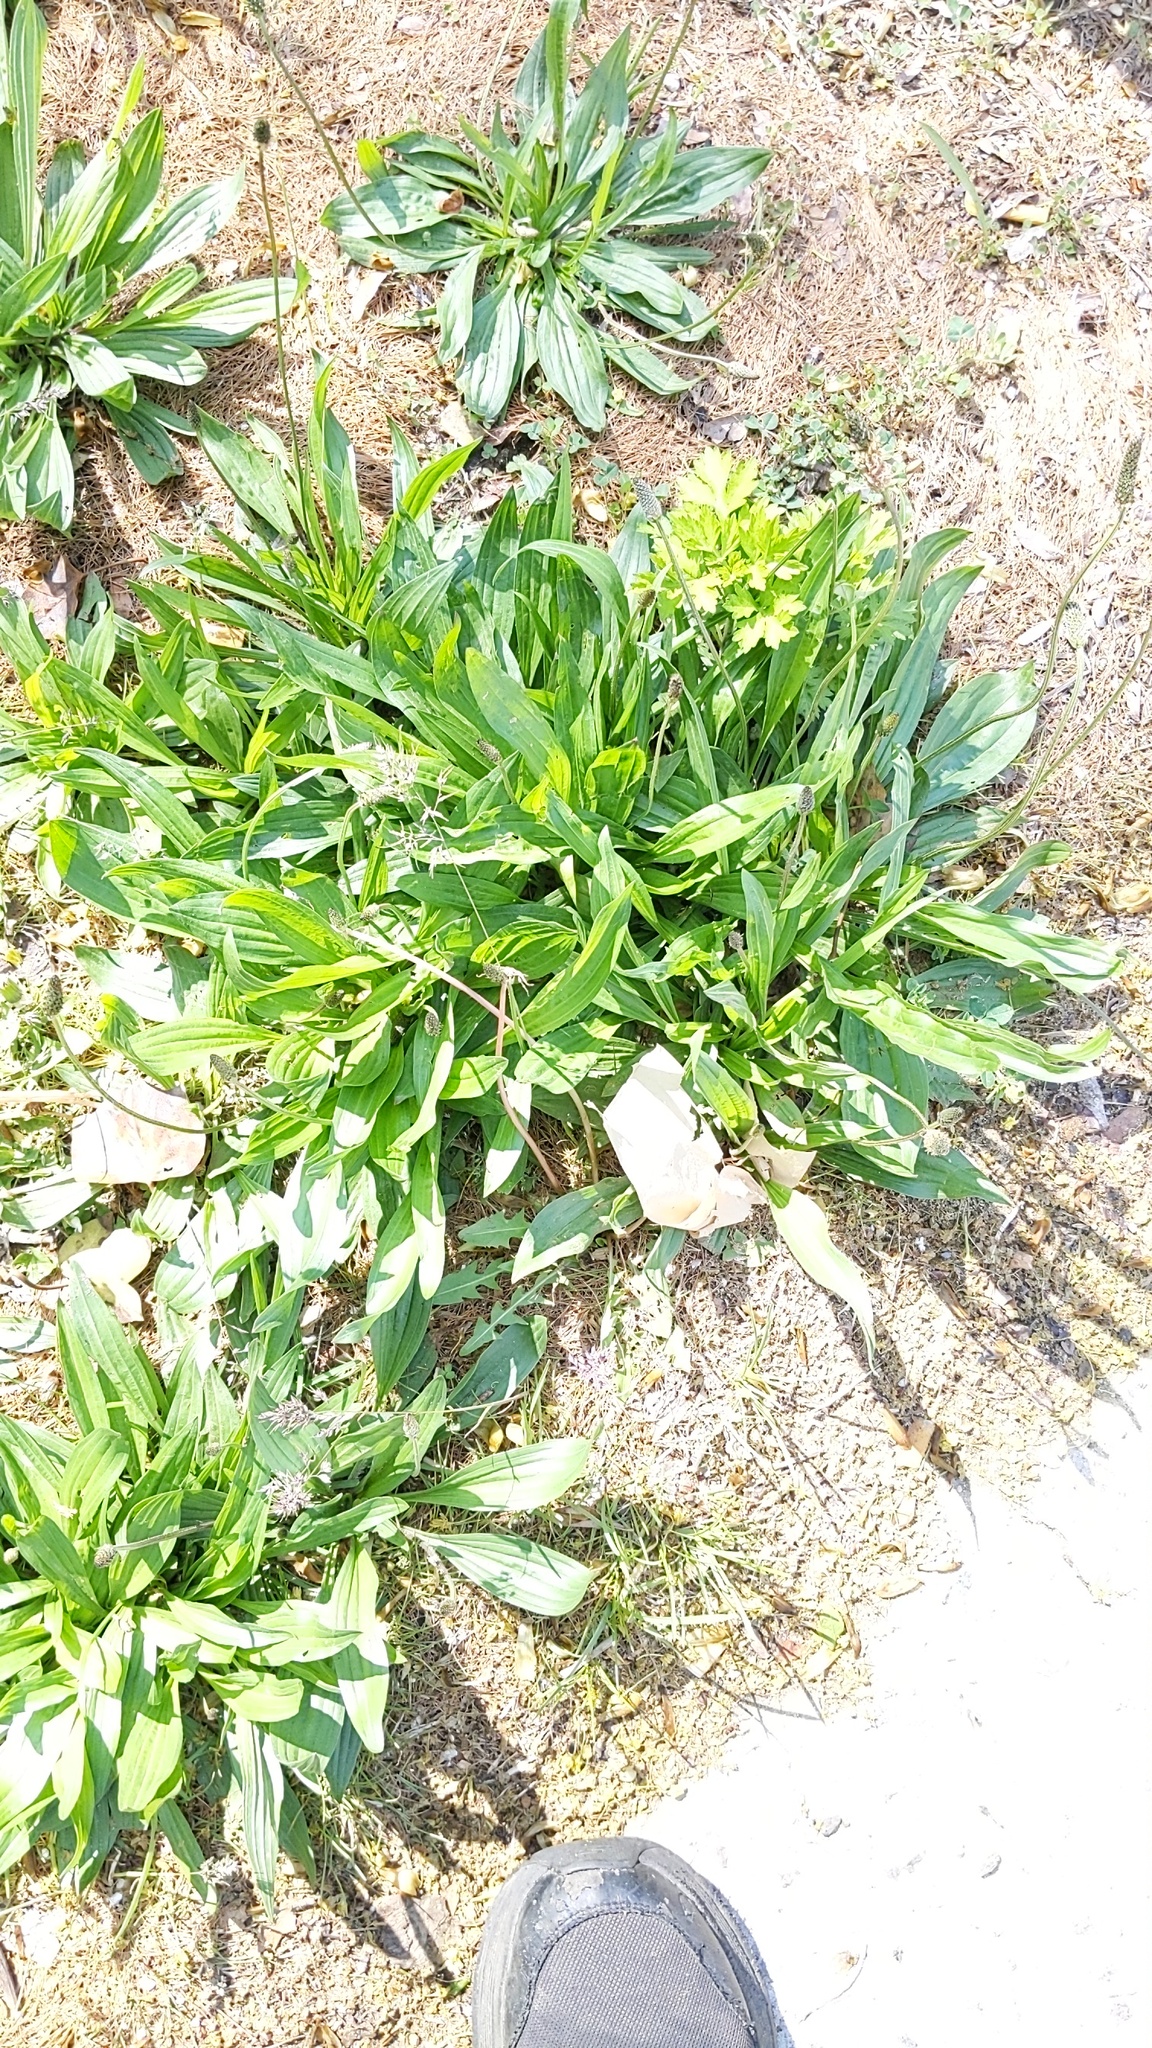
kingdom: Plantae
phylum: Tracheophyta
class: Magnoliopsida
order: Lamiales
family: Plantaginaceae
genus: Plantago
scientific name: Plantago major
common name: Common plantain
